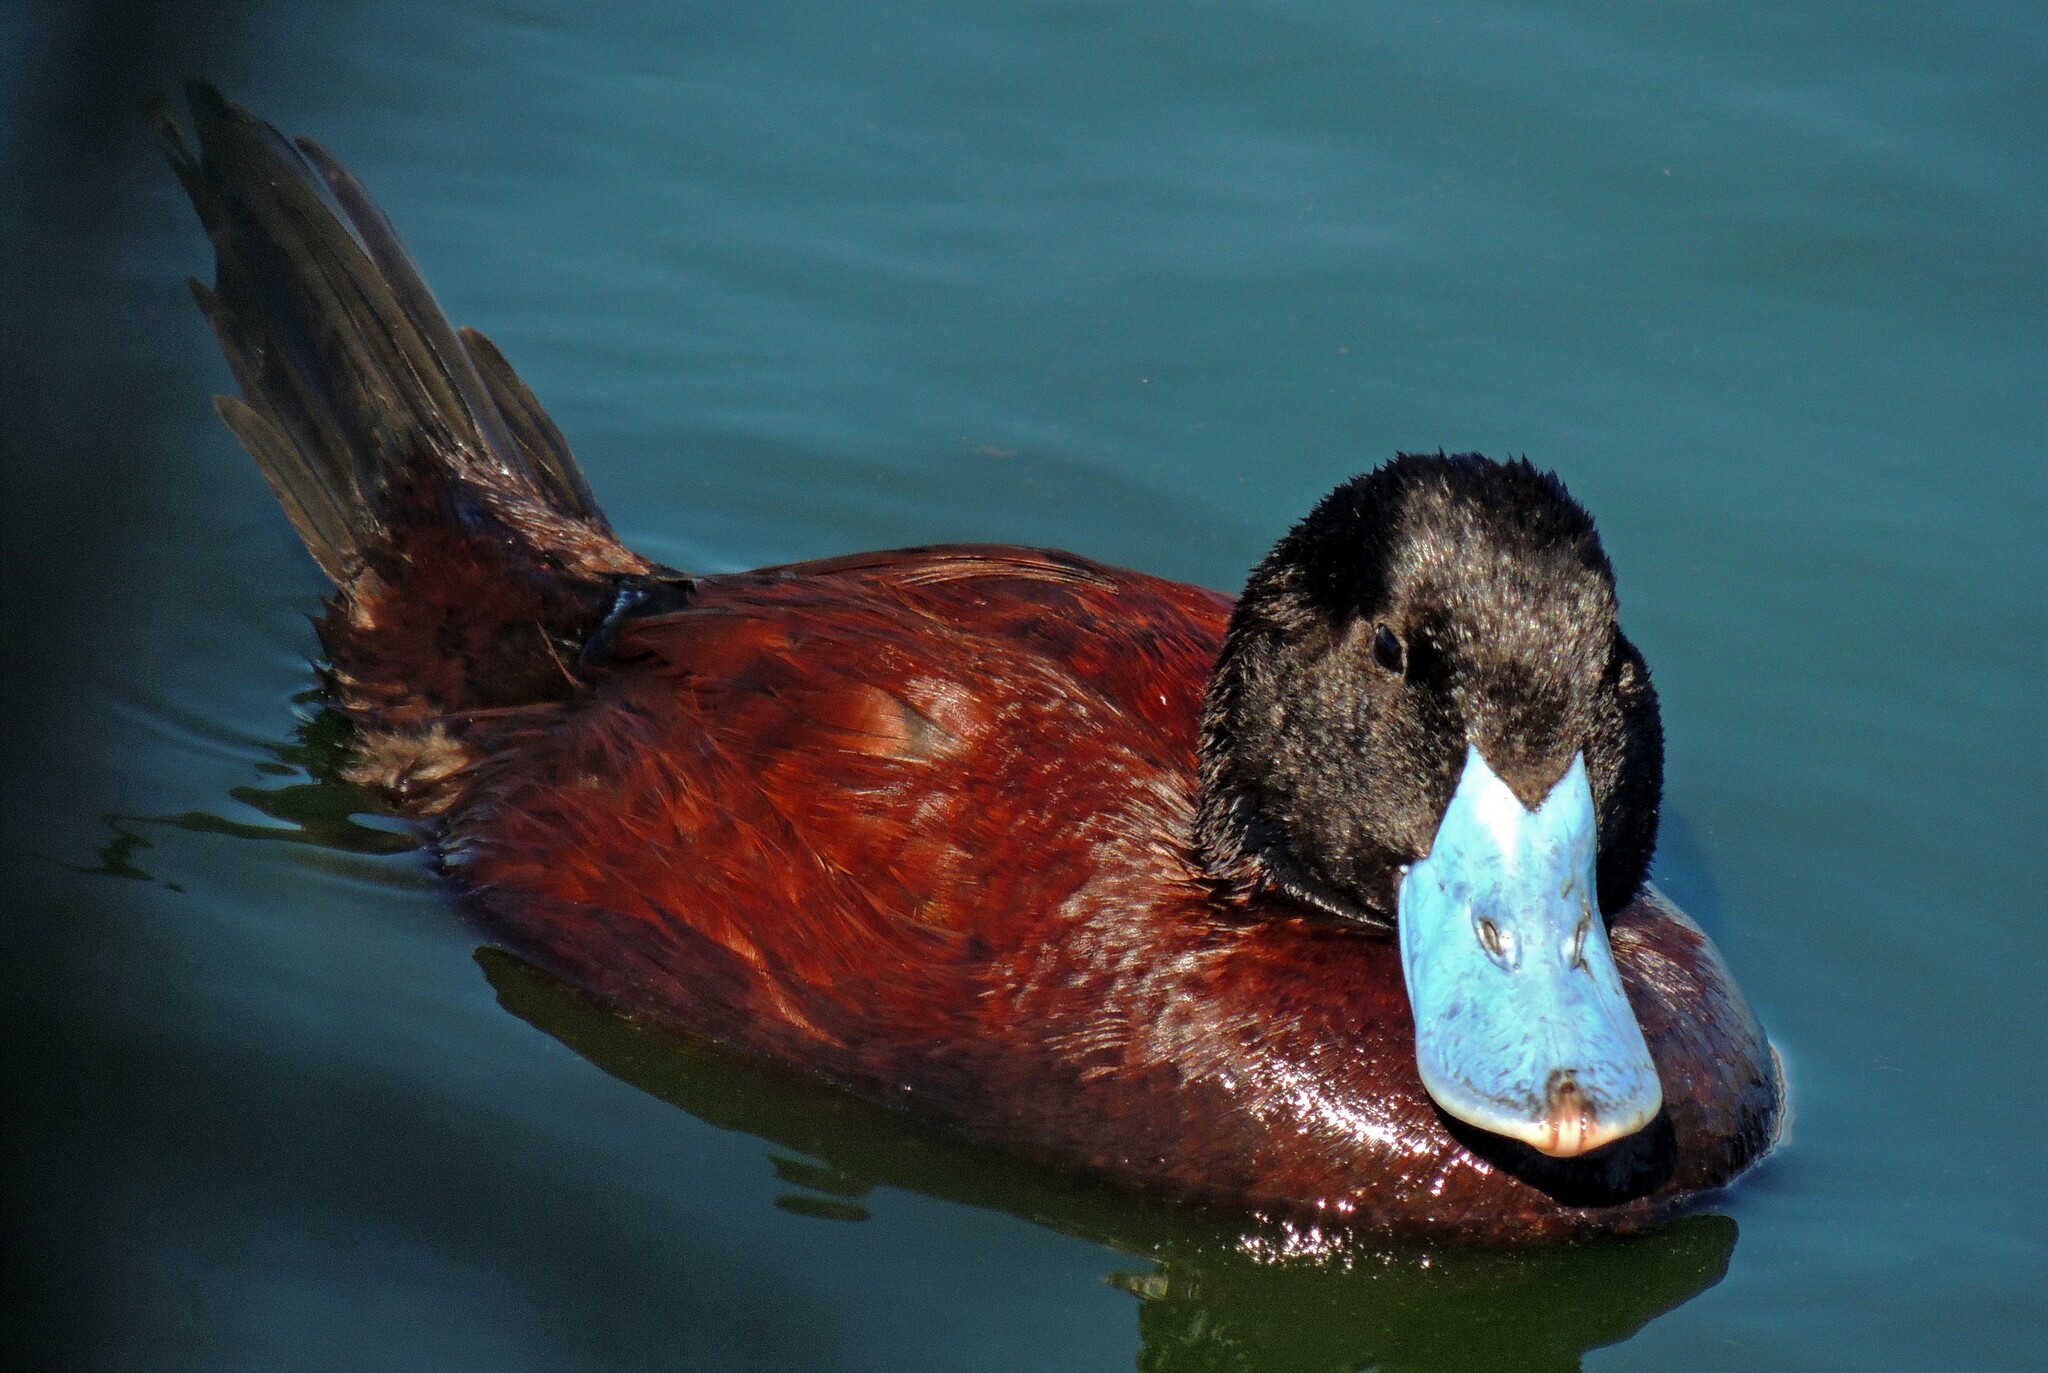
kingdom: Animalia
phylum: Chordata
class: Aves
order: Anseriformes
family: Anatidae
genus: Oxyura
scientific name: Oxyura ferruginea
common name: Andean duck
